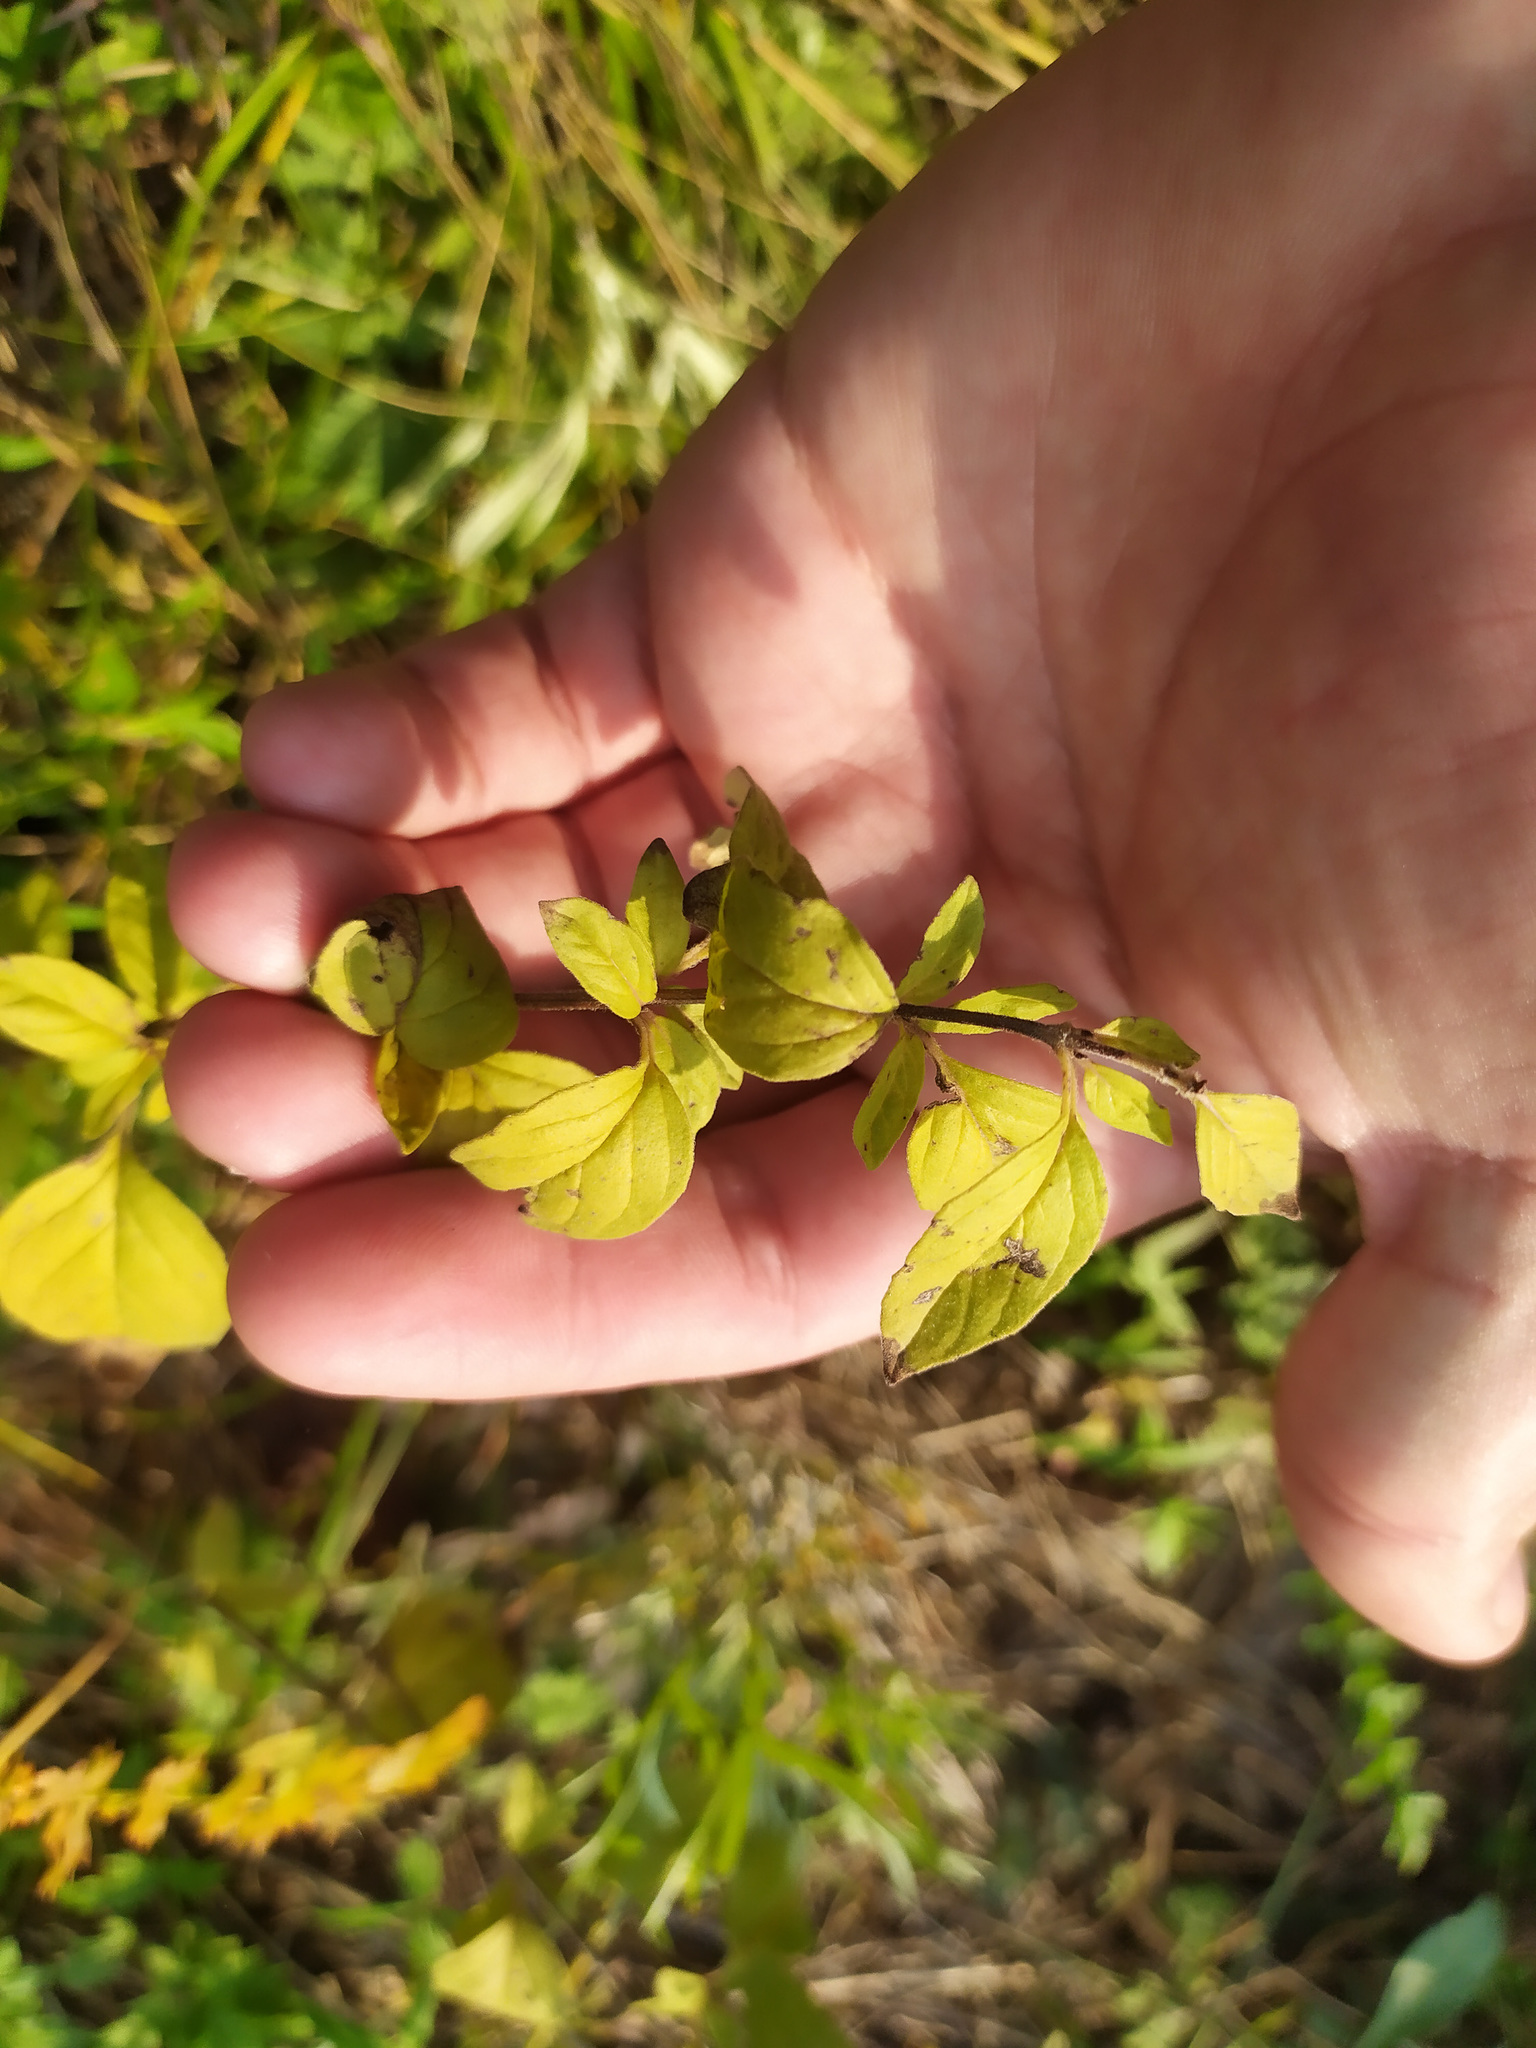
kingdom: Plantae
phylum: Tracheophyta
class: Magnoliopsida
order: Lamiales
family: Lamiaceae
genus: Origanum
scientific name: Origanum vulgare
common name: Wild marjoram
